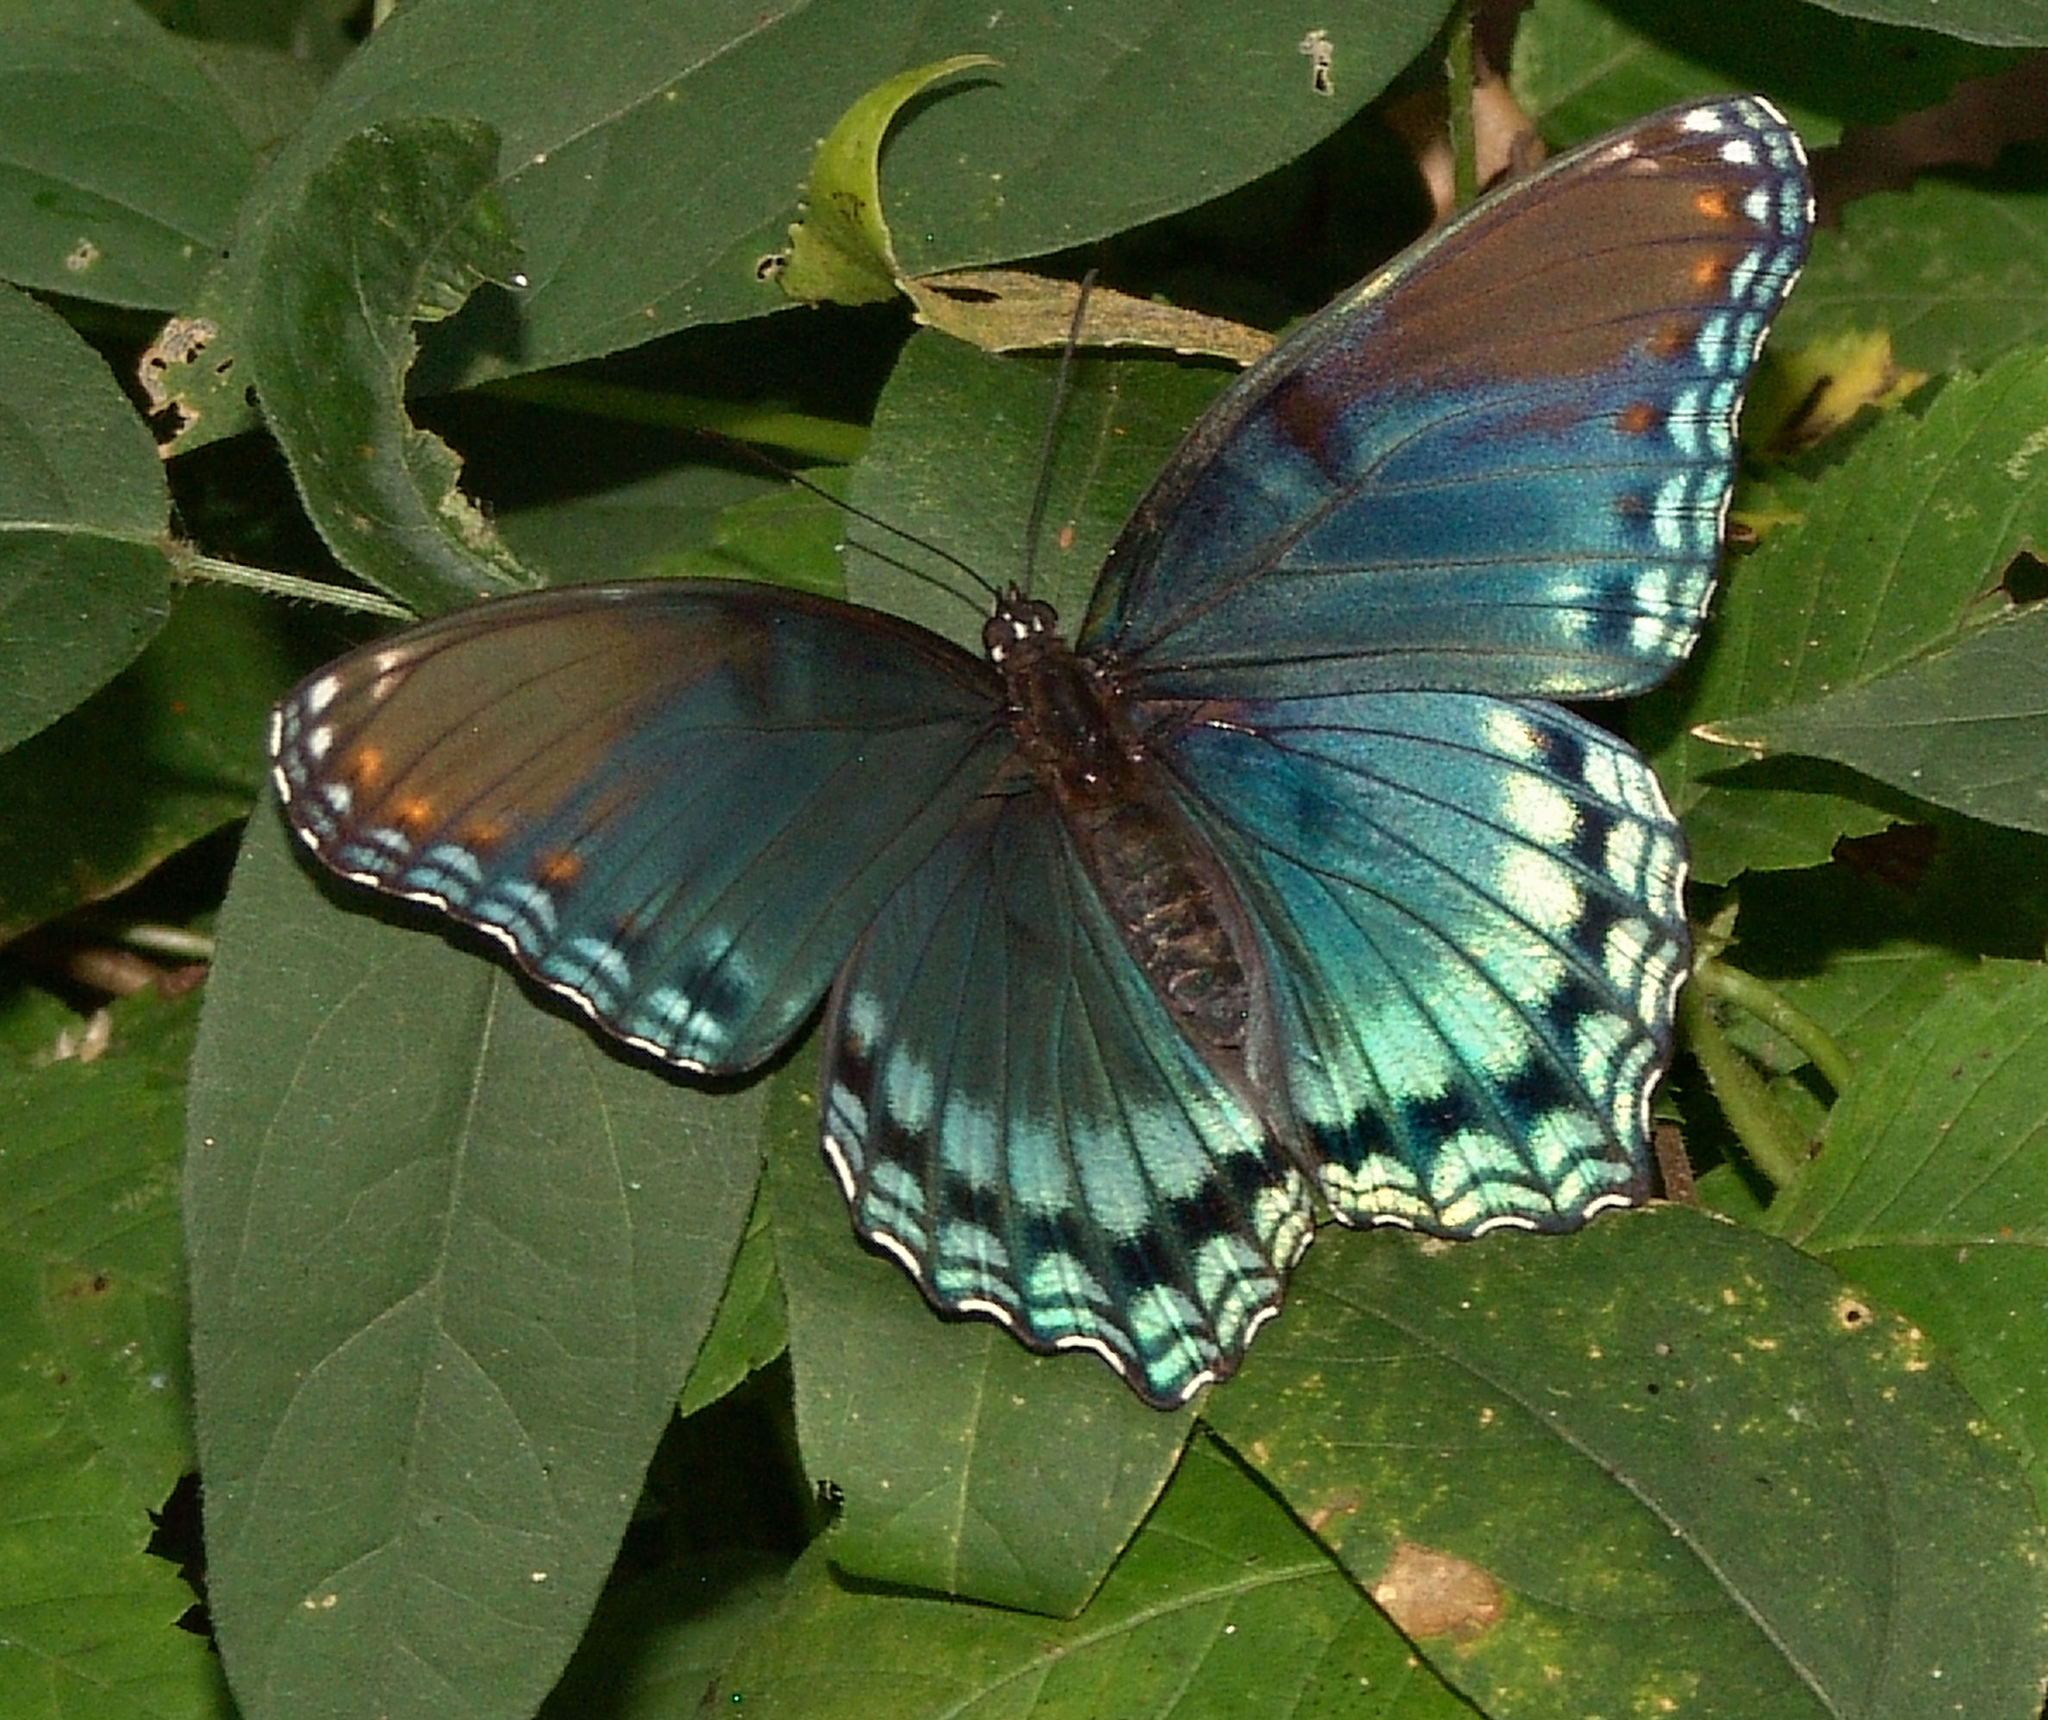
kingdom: Animalia
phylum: Arthropoda
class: Insecta
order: Lepidoptera
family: Nymphalidae
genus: Limenitis
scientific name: Limenitis astyanax
